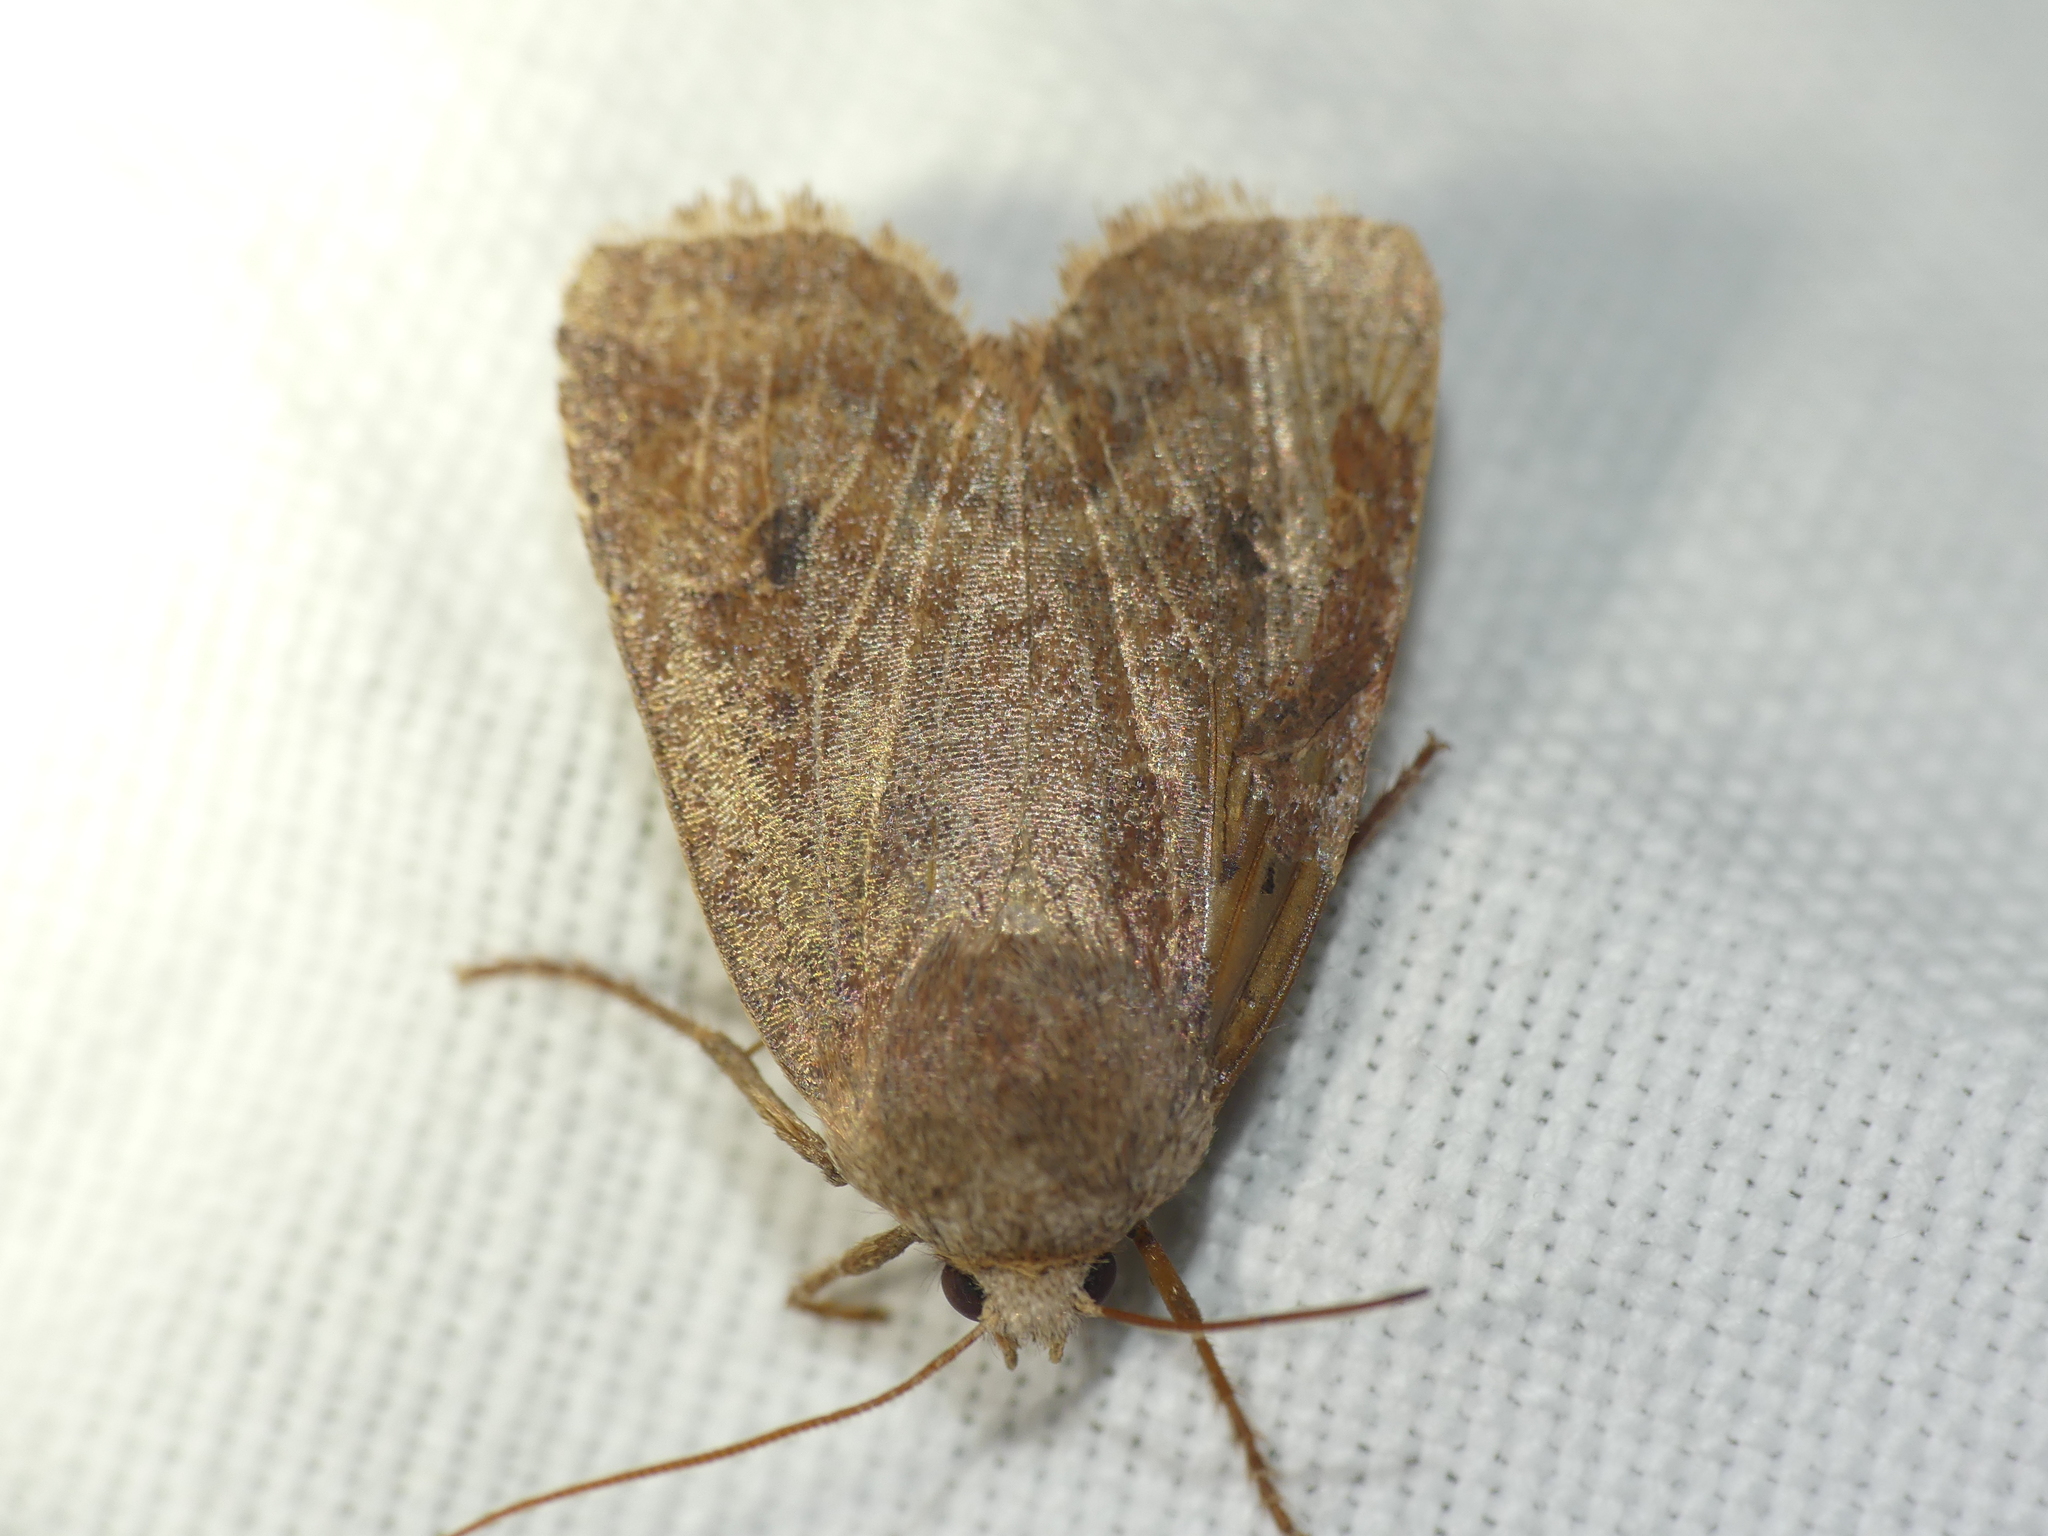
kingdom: Animalia
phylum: Arthropoda
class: Insecta
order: Lepidoptera
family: Noctuidae
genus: Conistra
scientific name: Conistra vaccinii
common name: Chestnut
